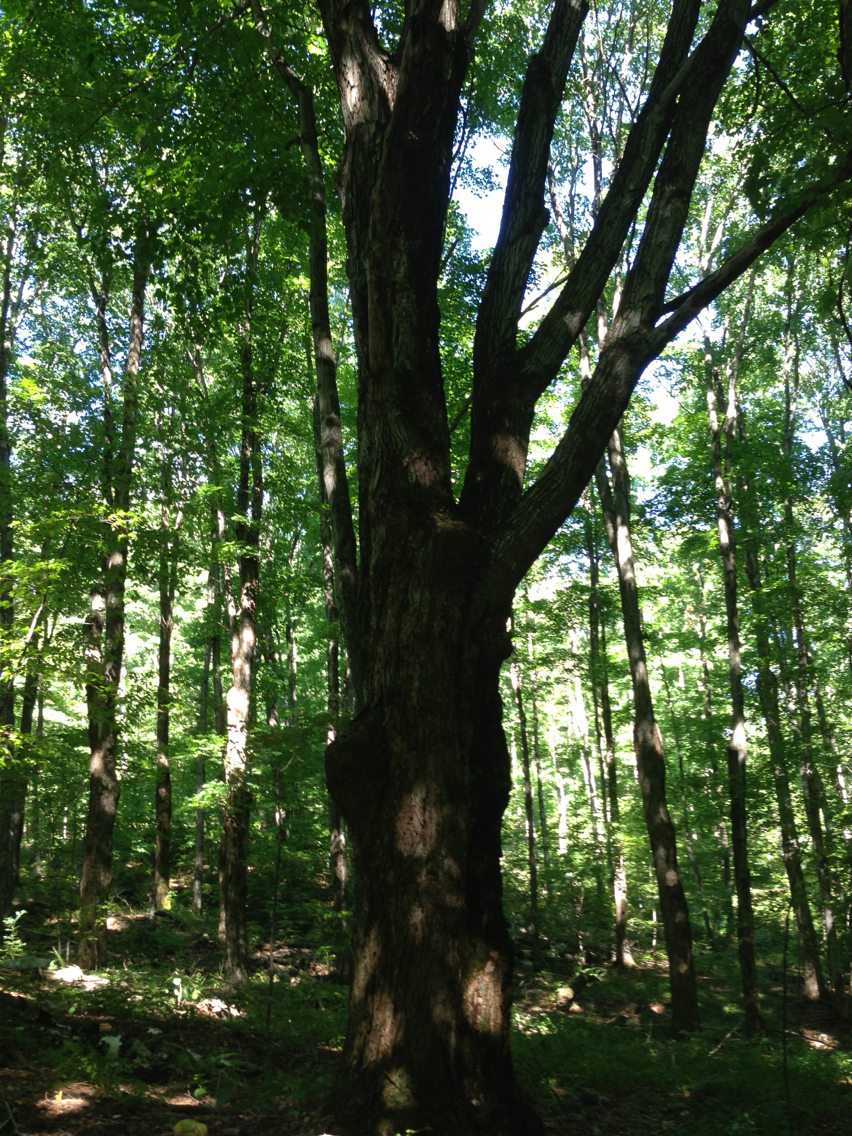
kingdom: Plantae
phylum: Tracheophyta
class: Magnoliopsida
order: Sapindales
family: Sapindaceae
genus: Acer
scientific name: Acer saccharum
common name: Sugar maple
